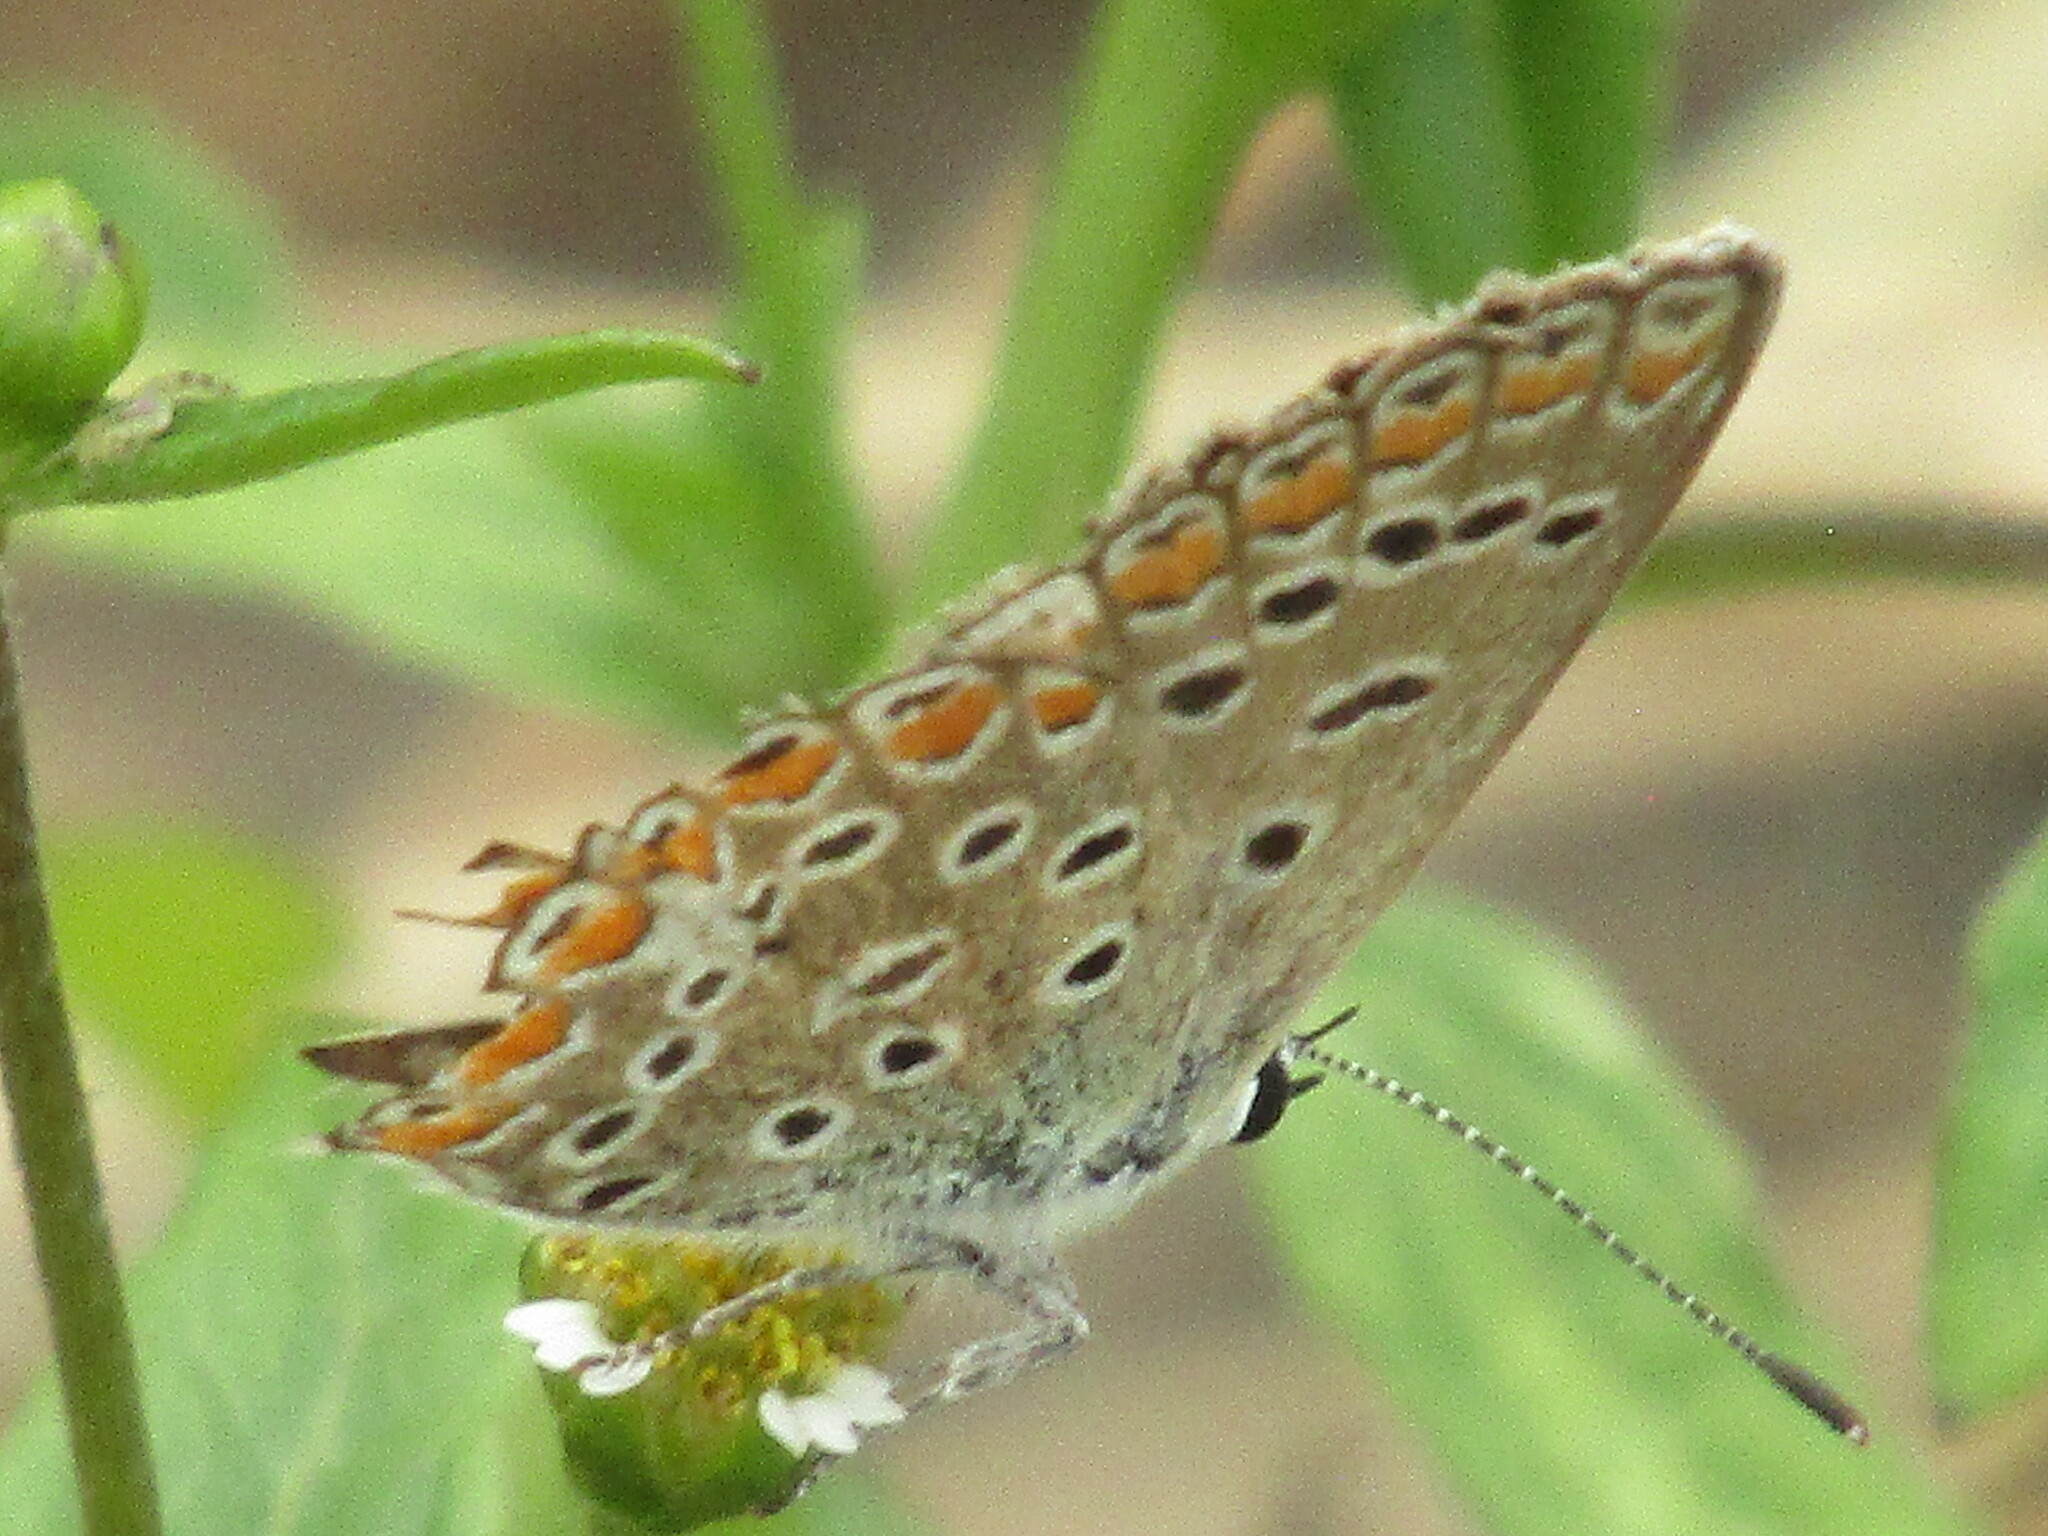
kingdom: Animalia
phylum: Arthropoda
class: Insecta
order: Lepidoptera
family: Lycaenidae
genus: Polyommatus
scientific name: Polyommatus icarus
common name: Common blue
